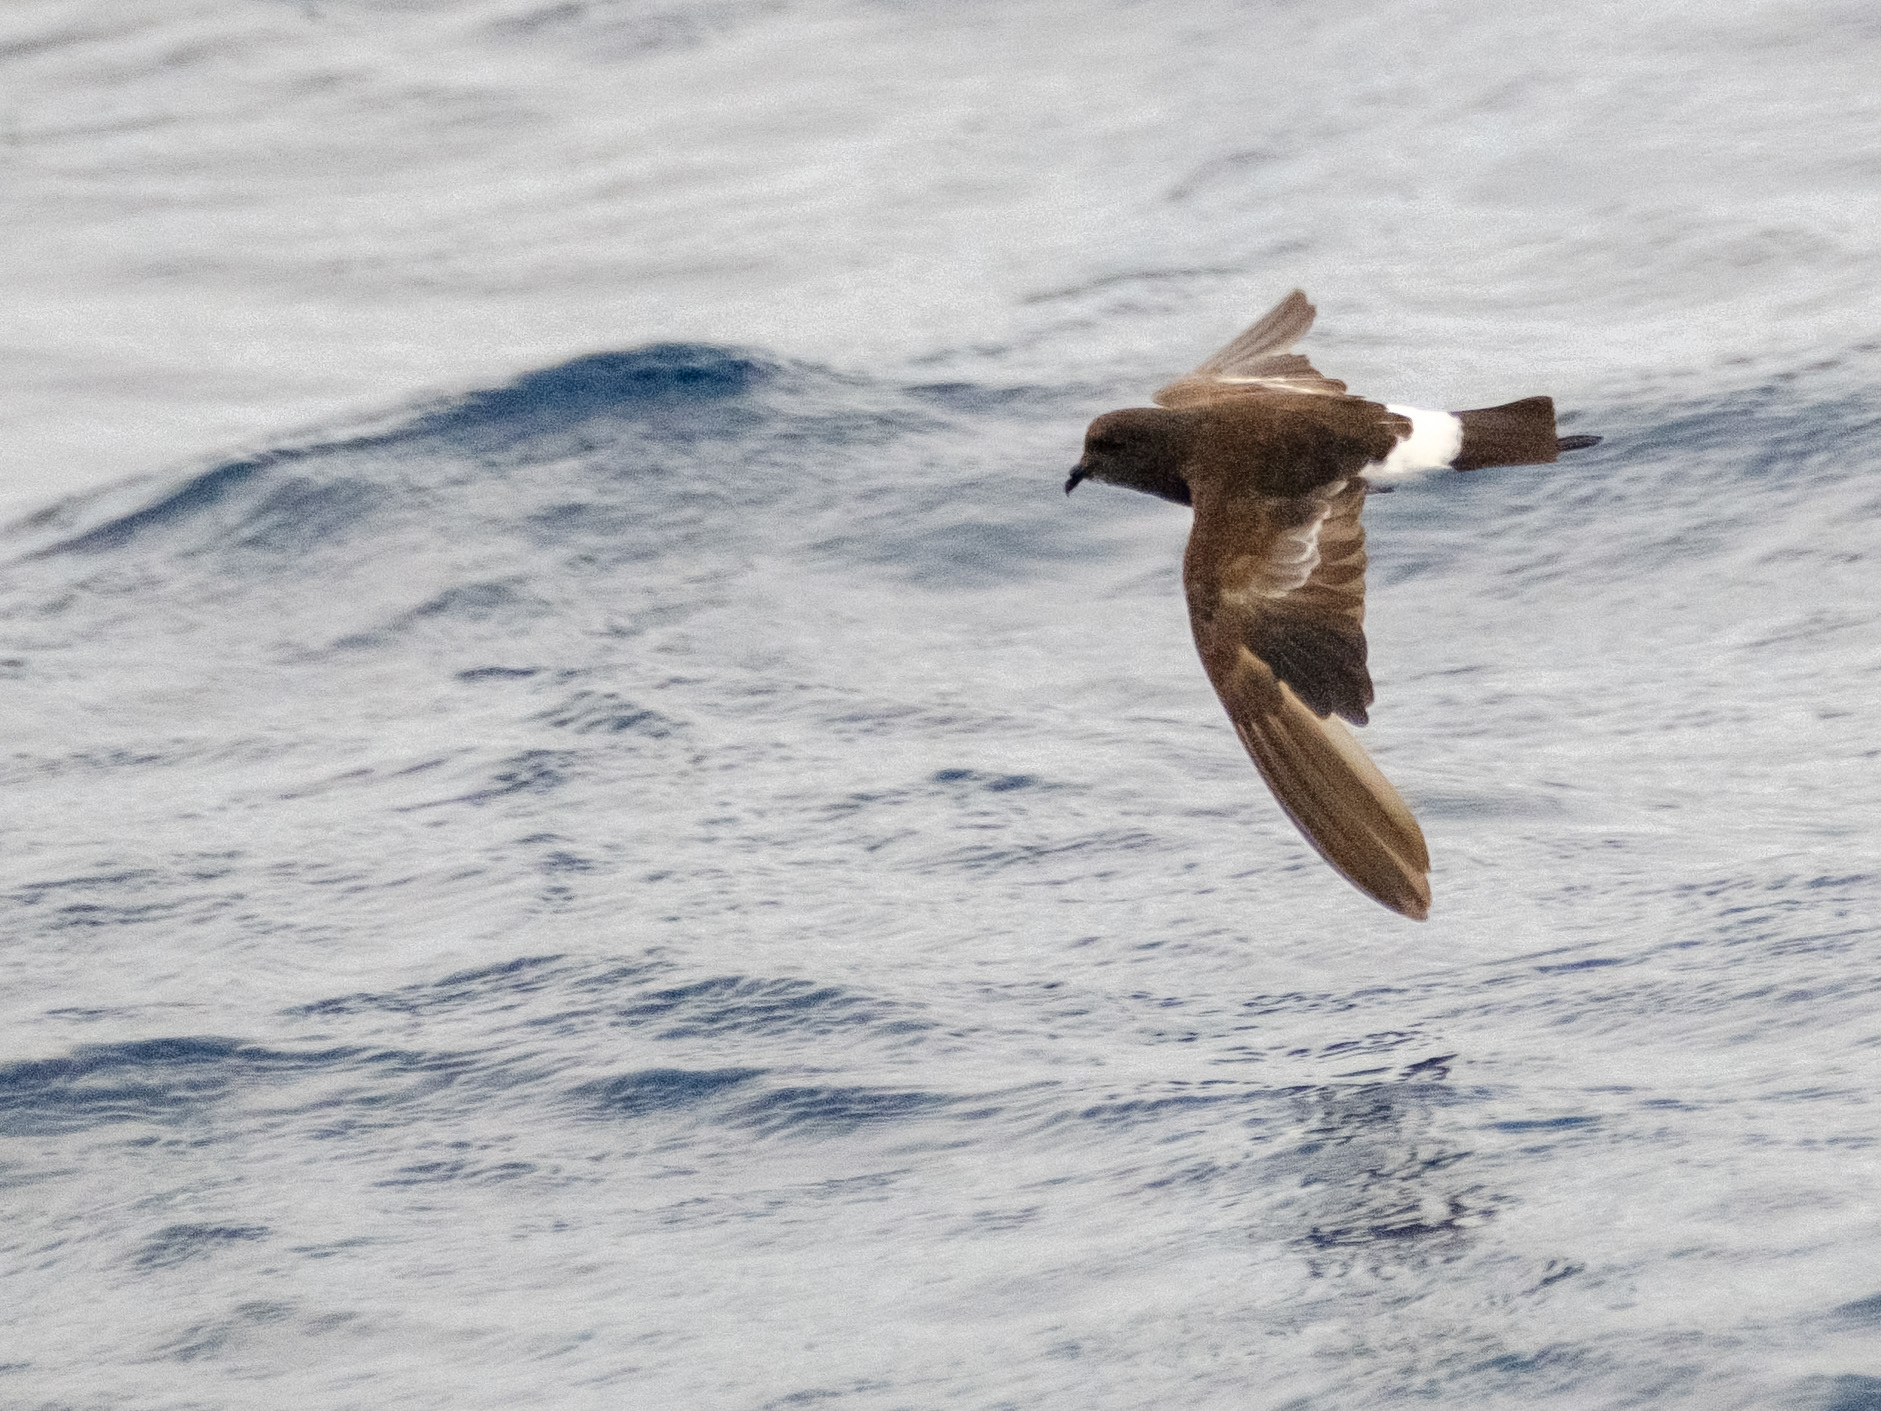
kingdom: Animalia
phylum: Chordata
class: Aves
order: Procellariiformes
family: Hydrobatidae
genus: Oceanites
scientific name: Oceanites oceanicus
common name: Wilson's storm petrel
